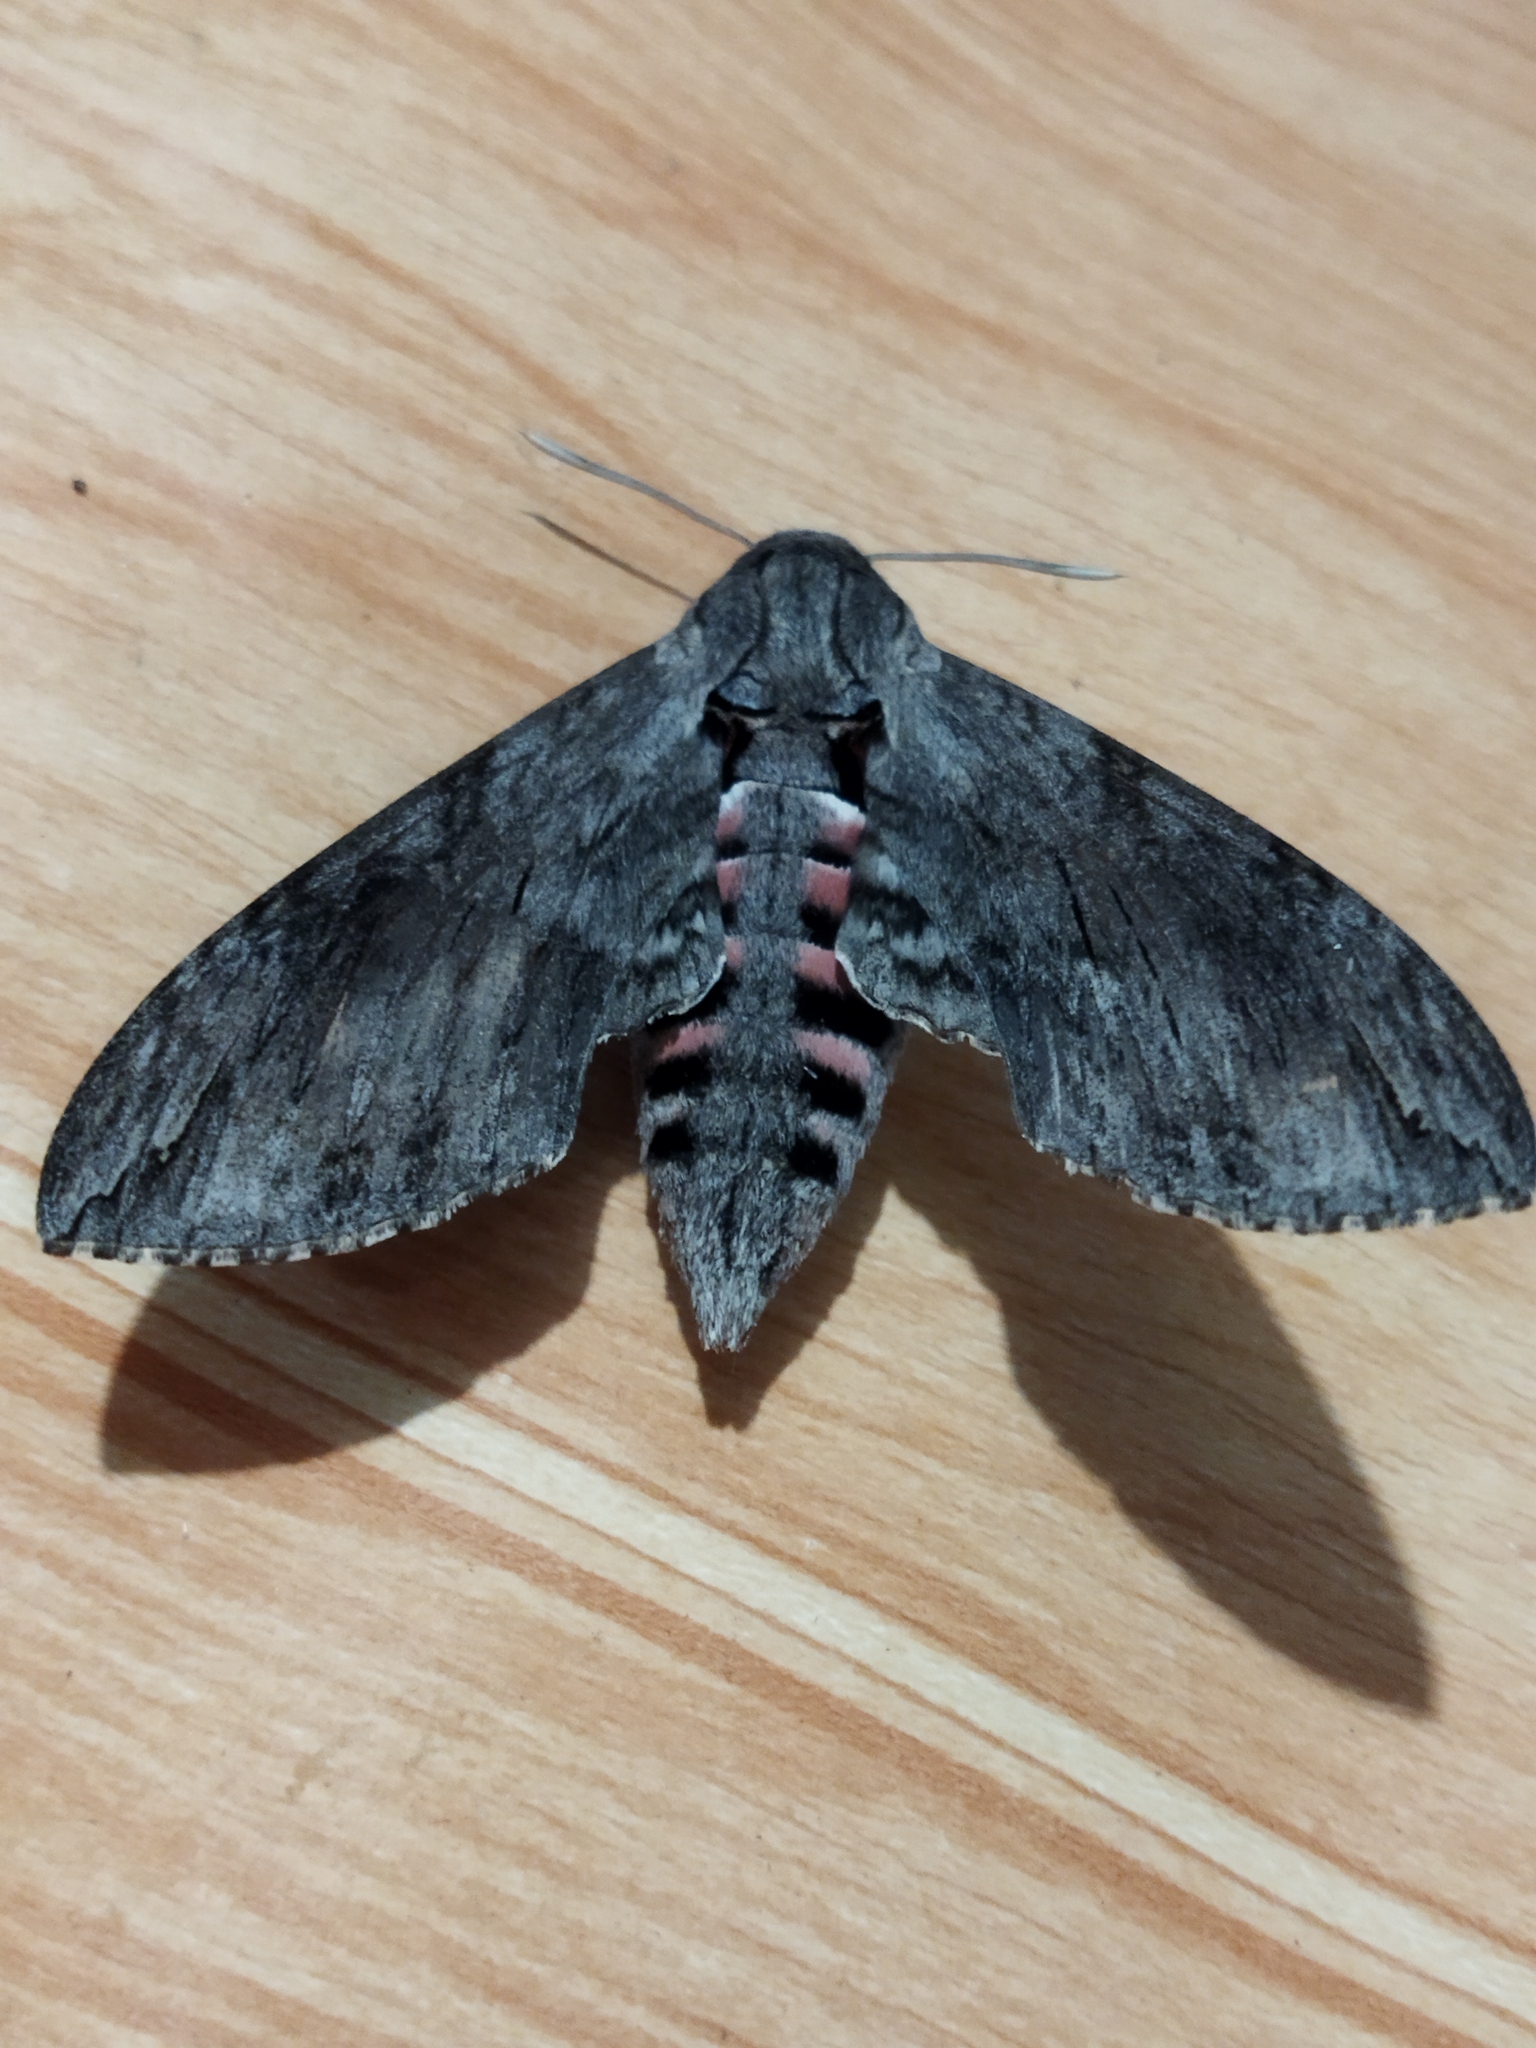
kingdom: Animalia
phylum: Arthropoda
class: Insecta
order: Lepidoptera
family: Sphingidae
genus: Agrius
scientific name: Agrius convolvuli
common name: Convolvulus hawkmoth
